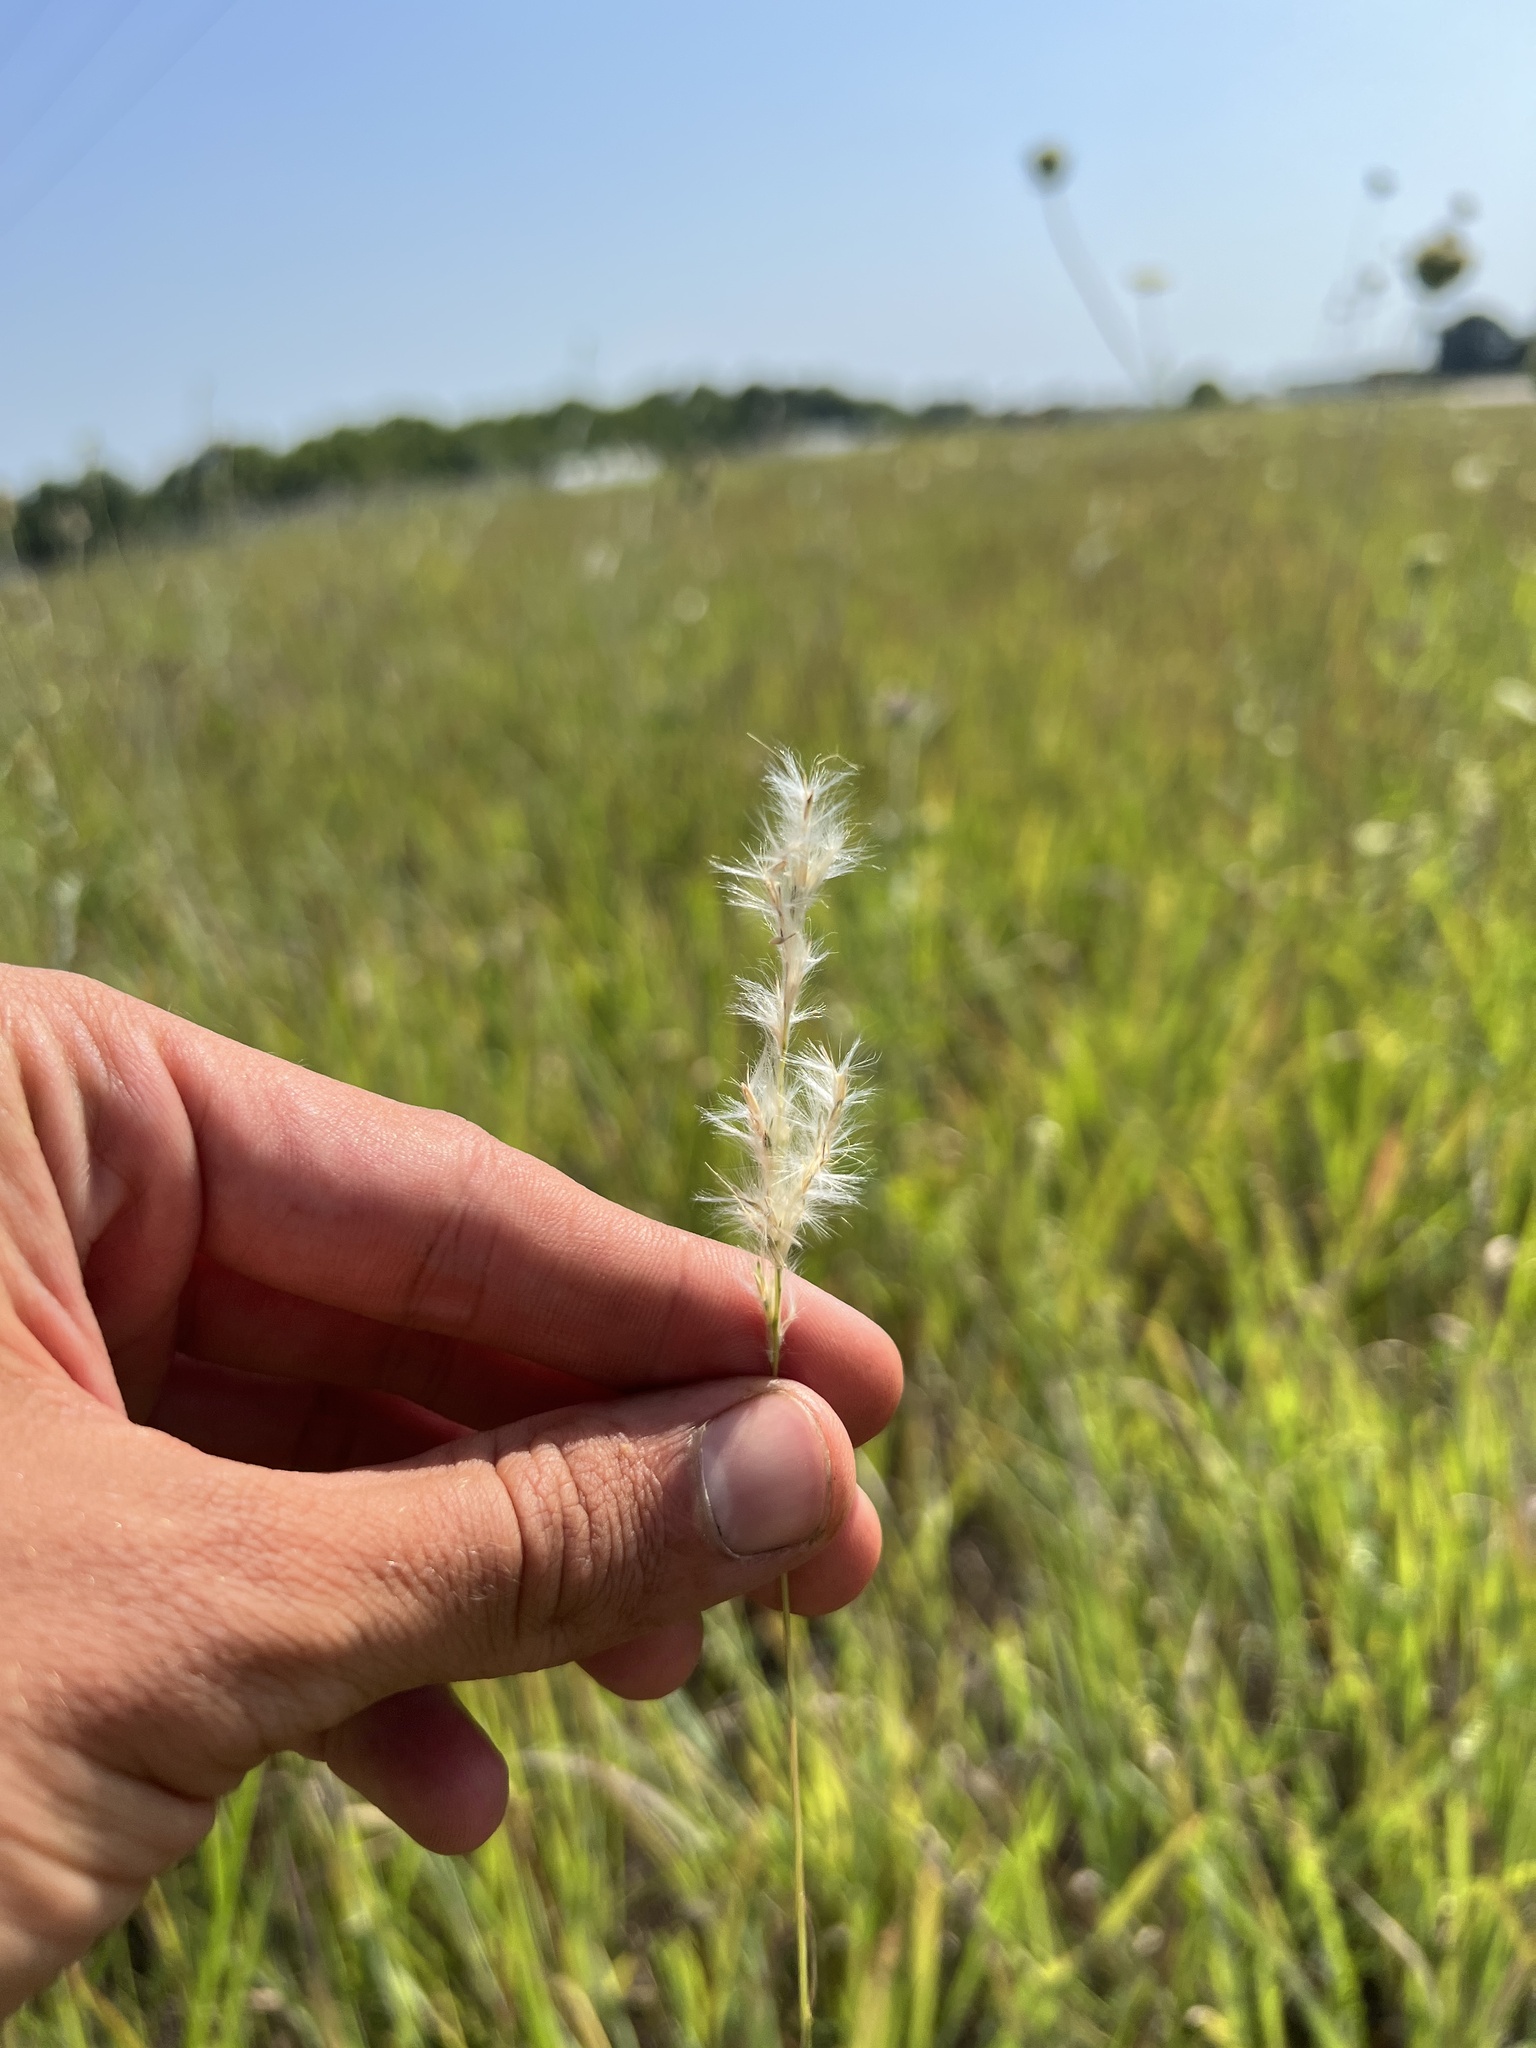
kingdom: Plantae
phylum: Tracheophyta
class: Liliopsida
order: Poales
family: Poaceae
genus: Bothriochloa
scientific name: Bothriochloa torreyana
